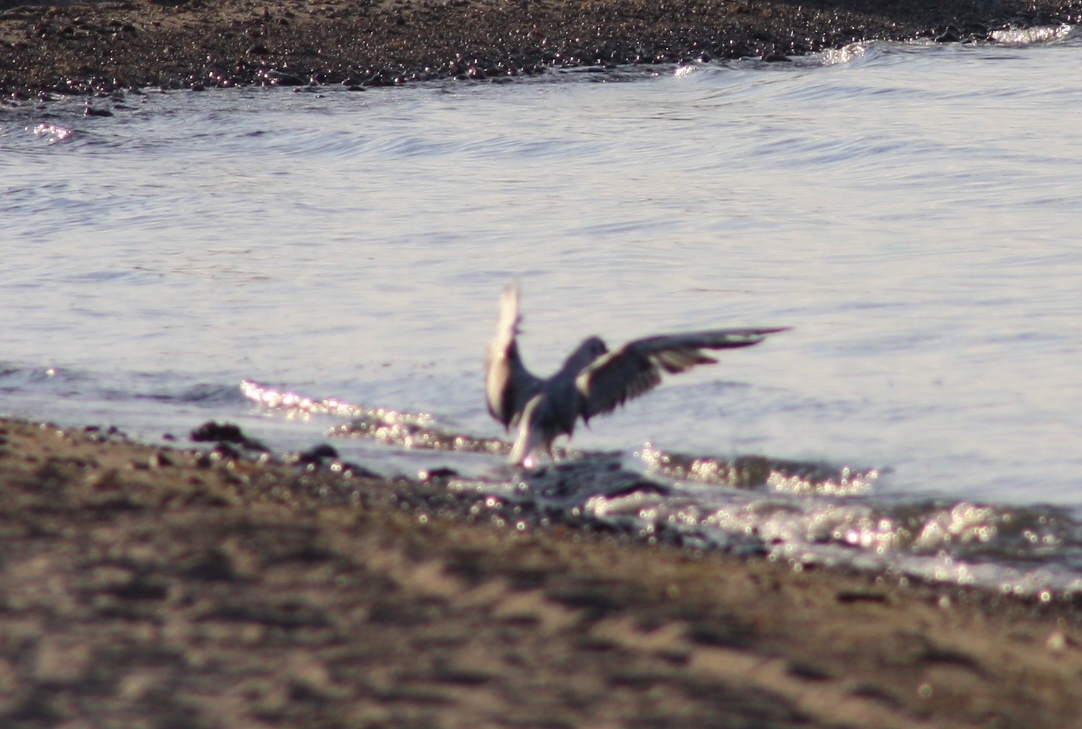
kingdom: Animalia
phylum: Chordata
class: Aves
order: Charadriiformes
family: Laridae
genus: Chroicocephalus
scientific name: Chroicocephalus ridibundus
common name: Black-headed gull
